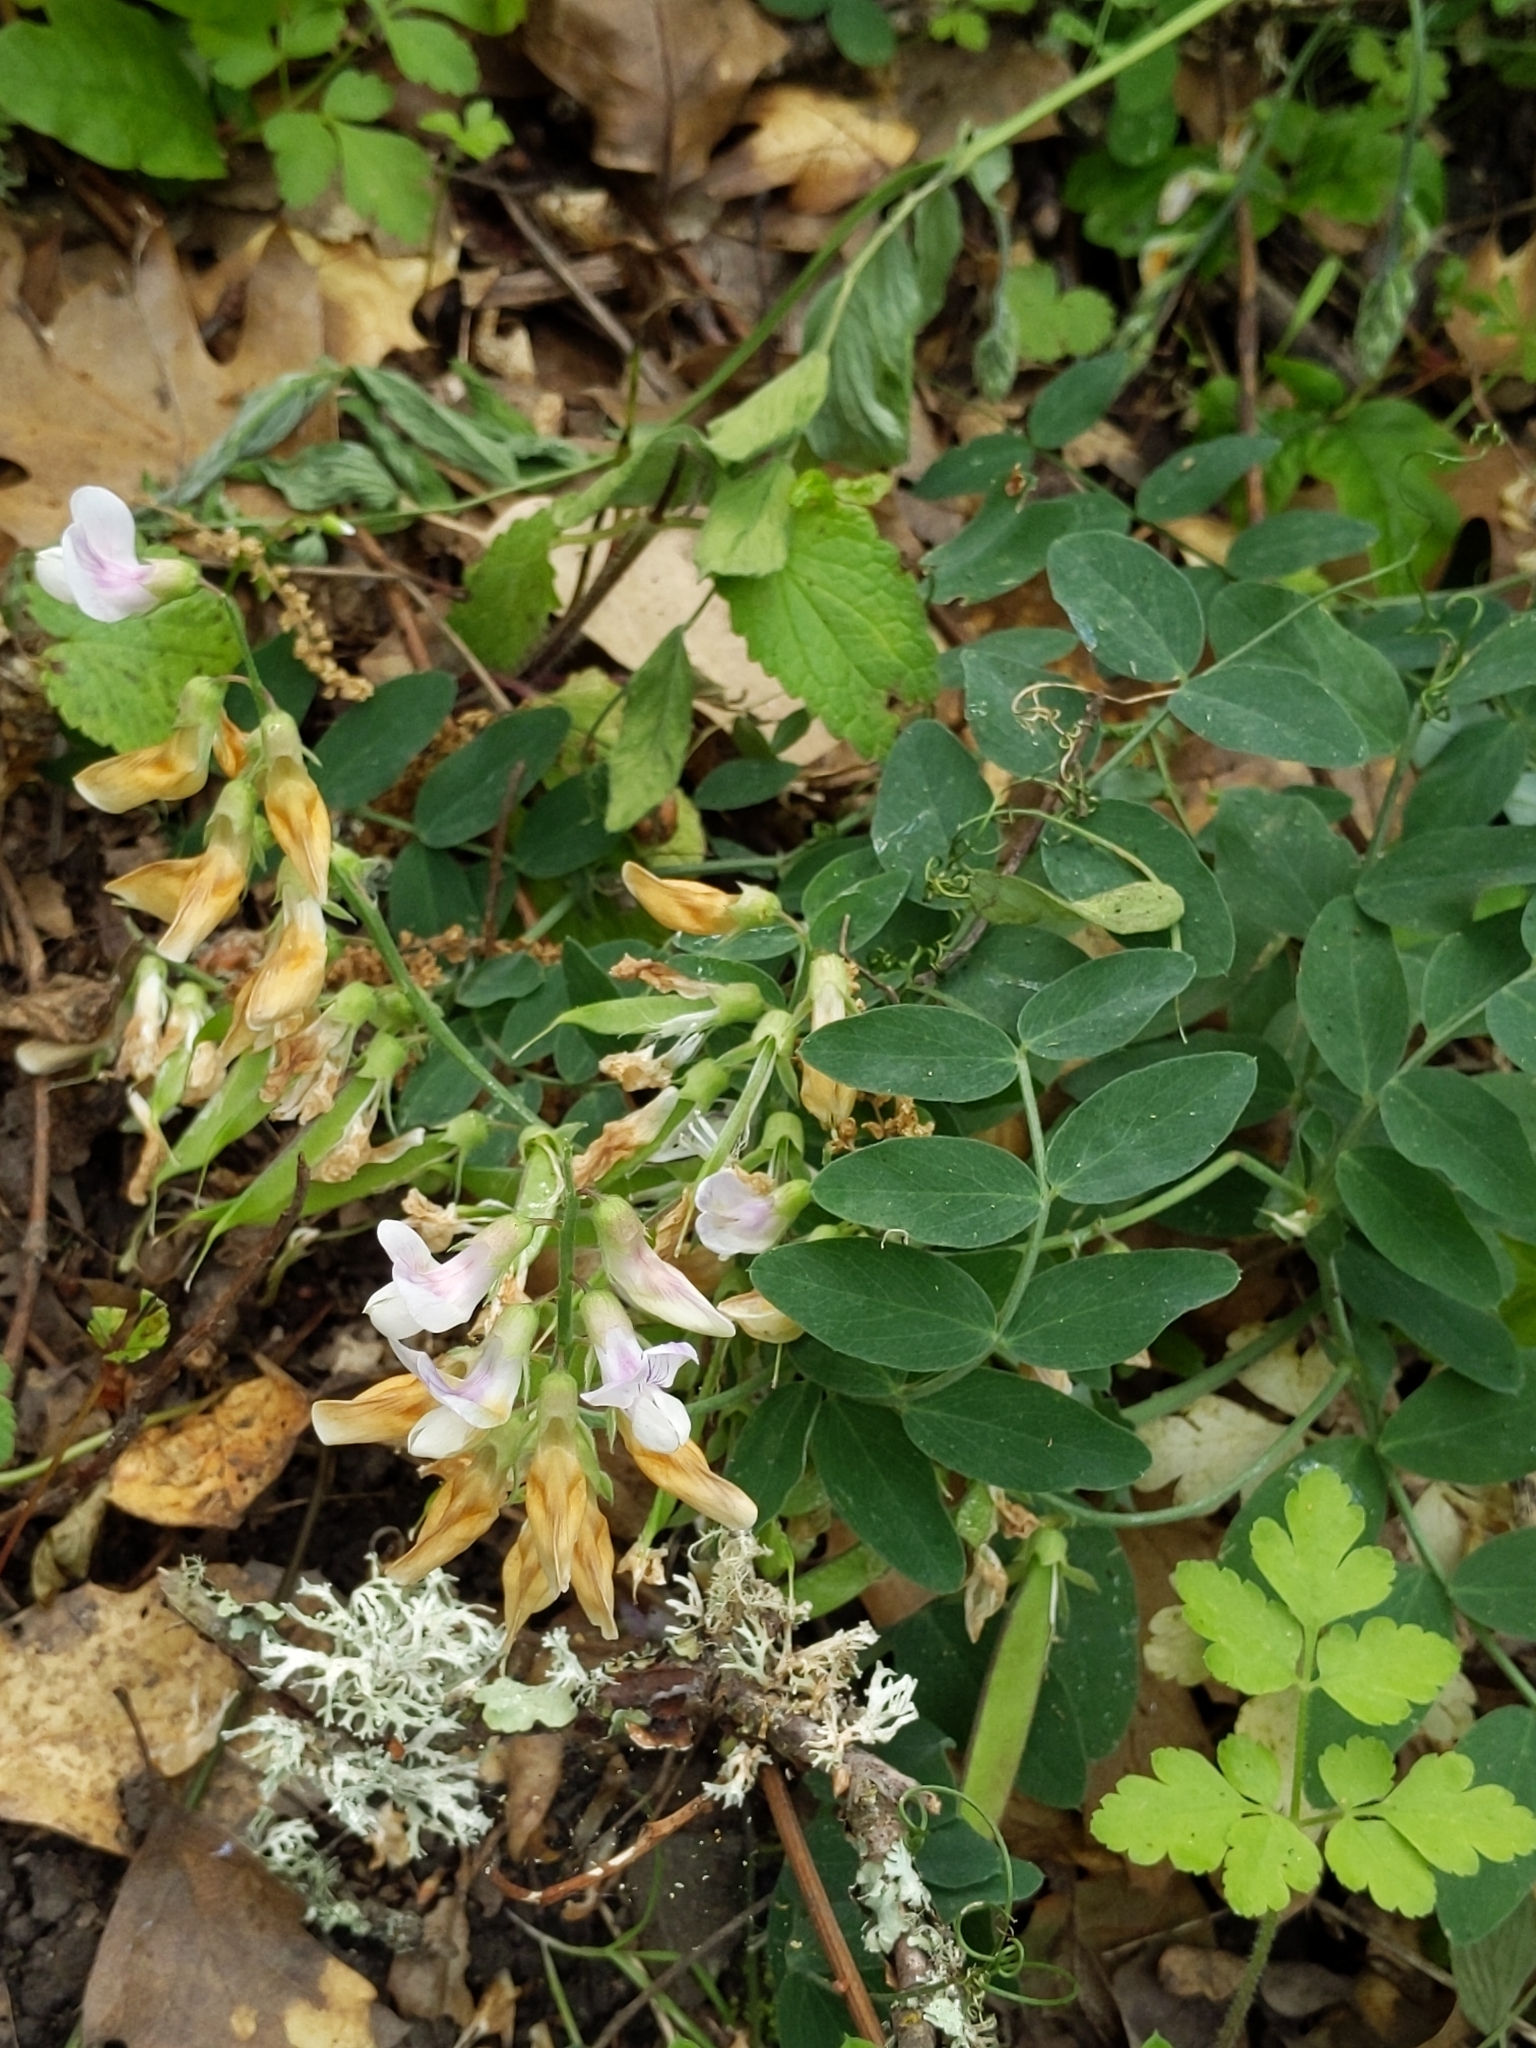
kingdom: Plantae
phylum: Tracheophyta
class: Magnoliopsida
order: Fabales
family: Fabaceae
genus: Lathyrus
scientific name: Lathyrus vestitus
